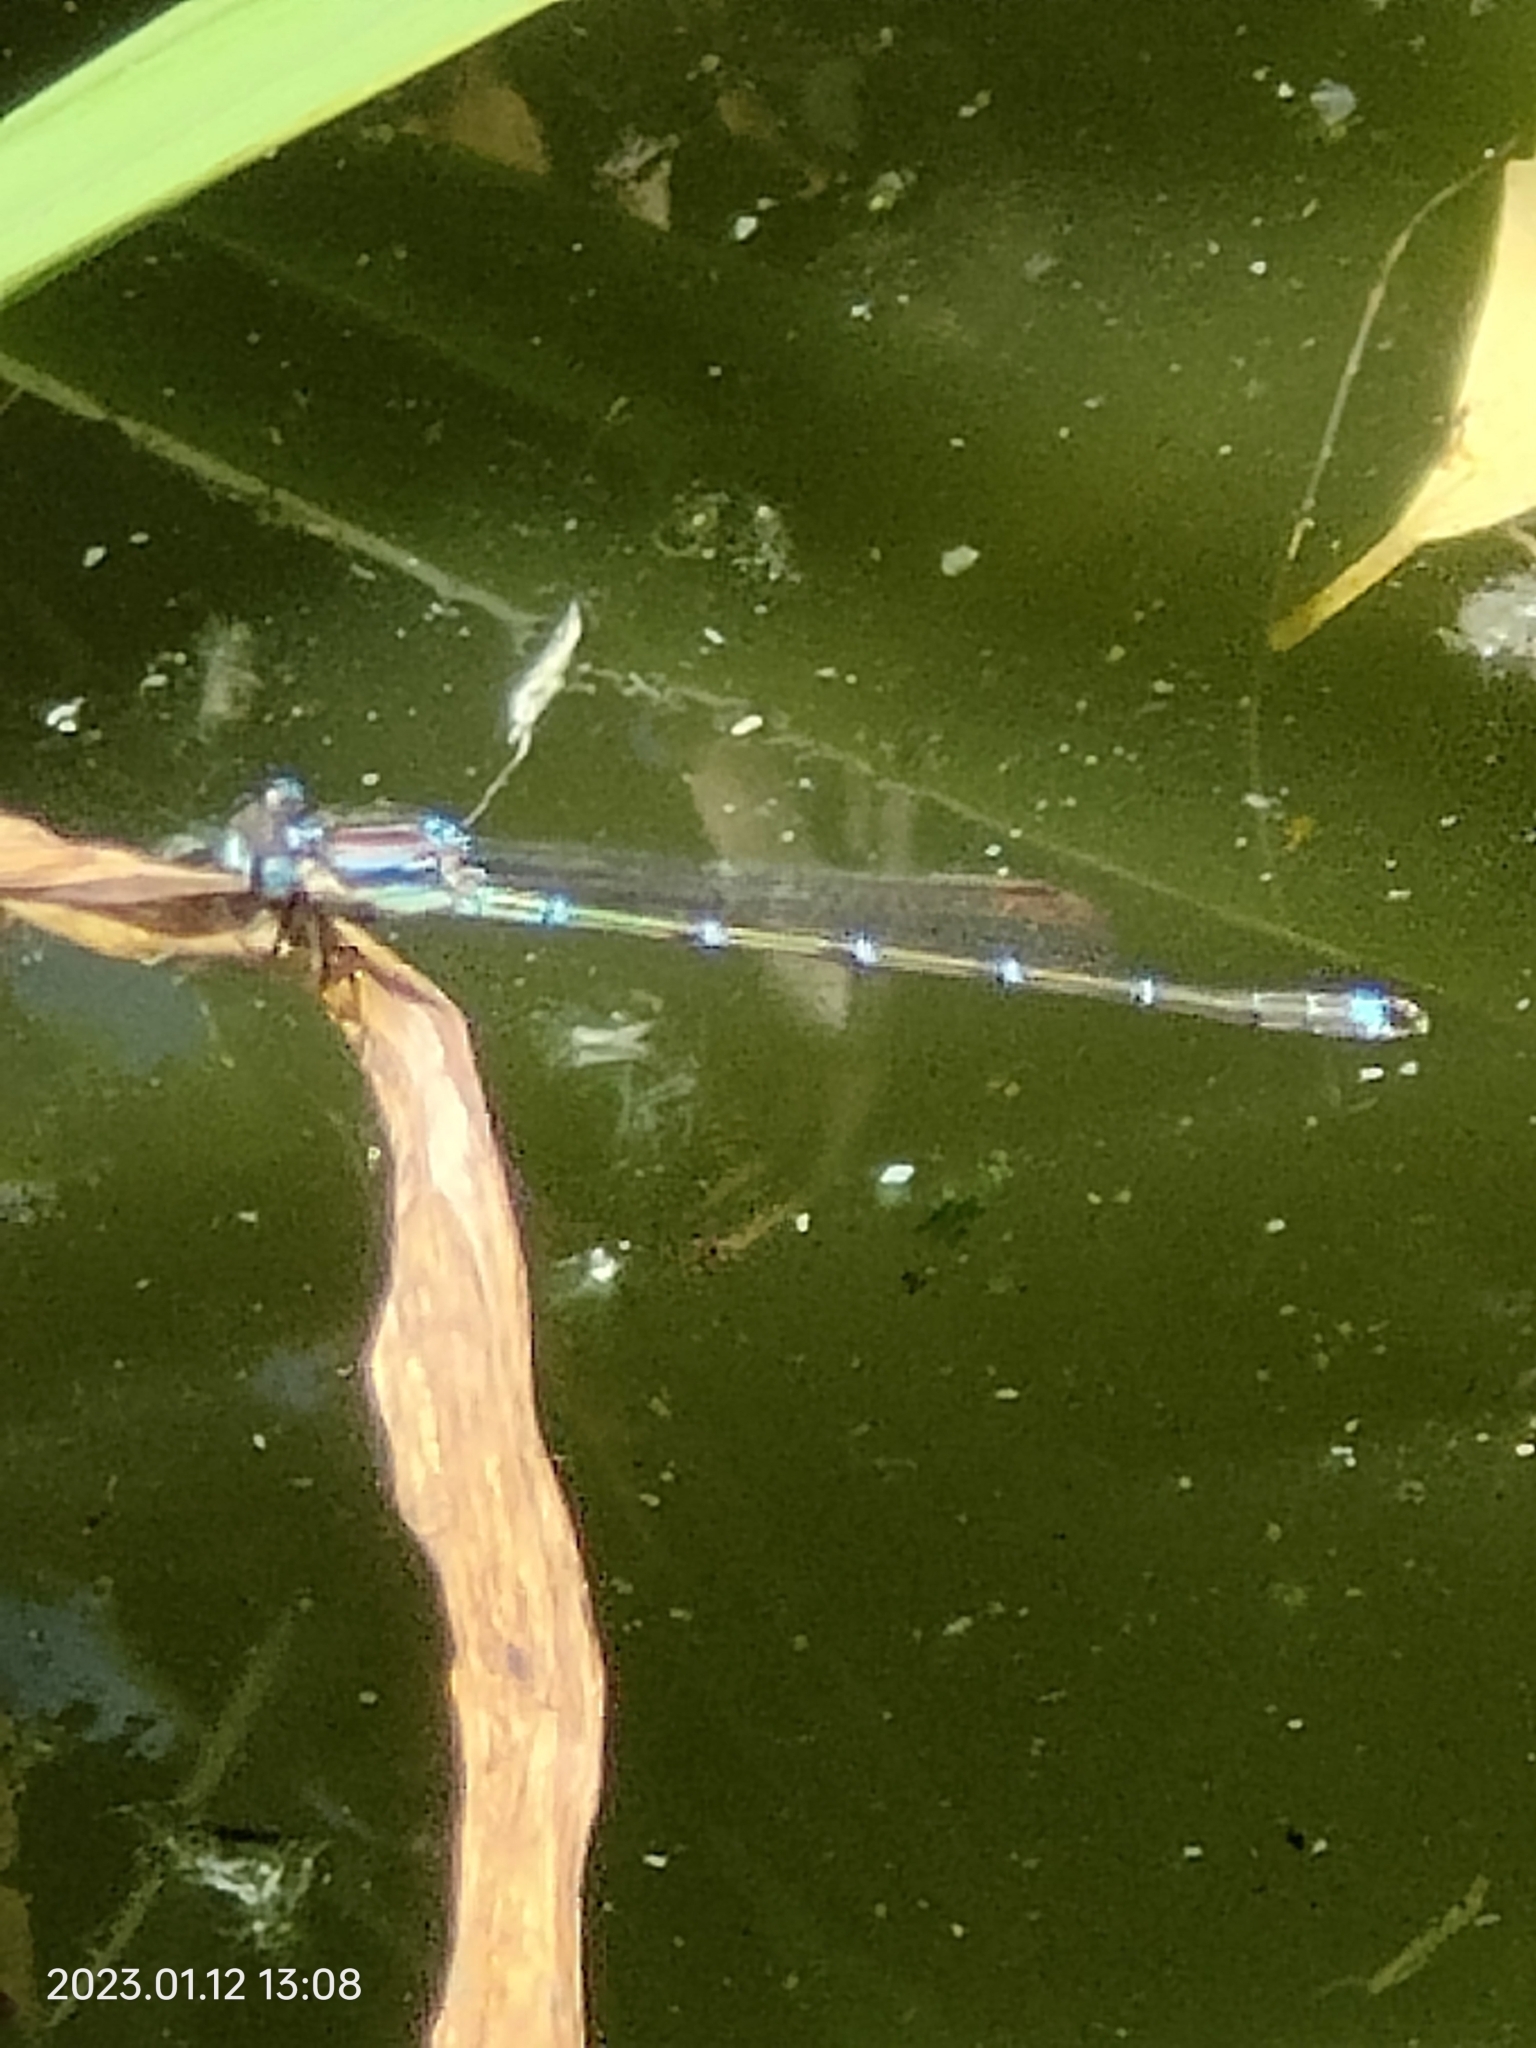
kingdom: Animalia
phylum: Arthropoda
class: Insecta
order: Odonata
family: Lestidae
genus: Austrolestes
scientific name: Austrolestes colensonis
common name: Blue damselfly
